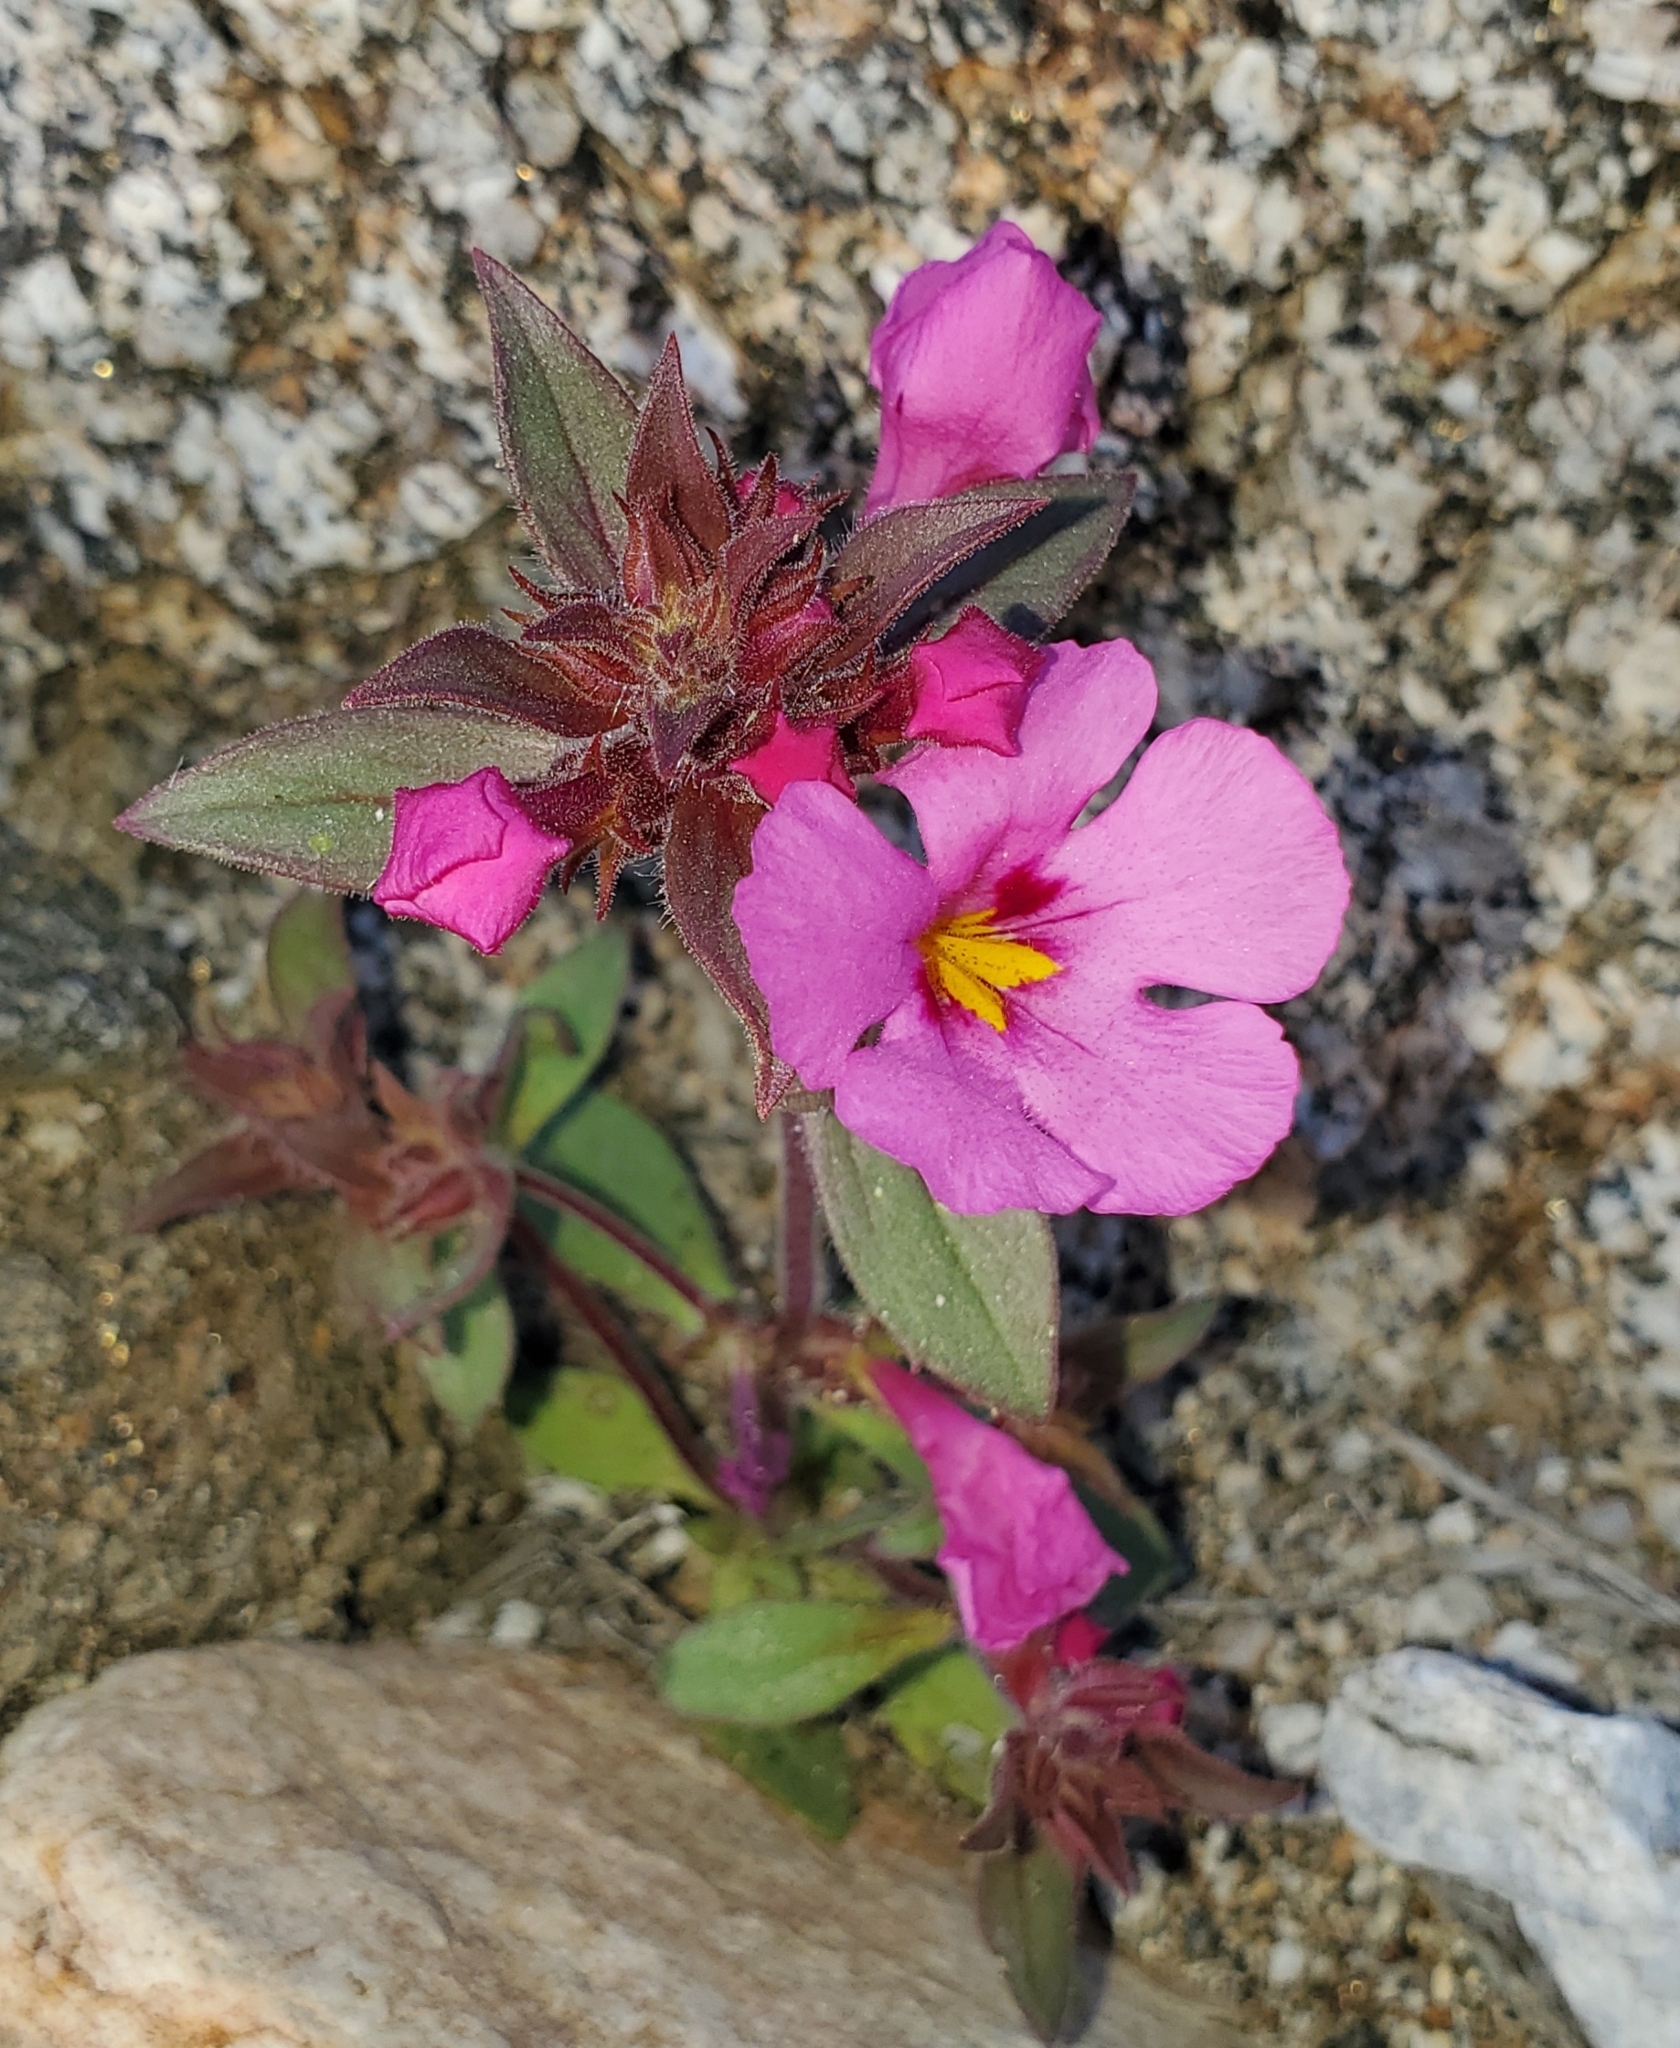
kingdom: Plantae
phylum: Tracheophyta
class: Magnoliopsida
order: Lamiales
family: Phrymaceae
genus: Diplacus
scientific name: Diplacus bigelovii
